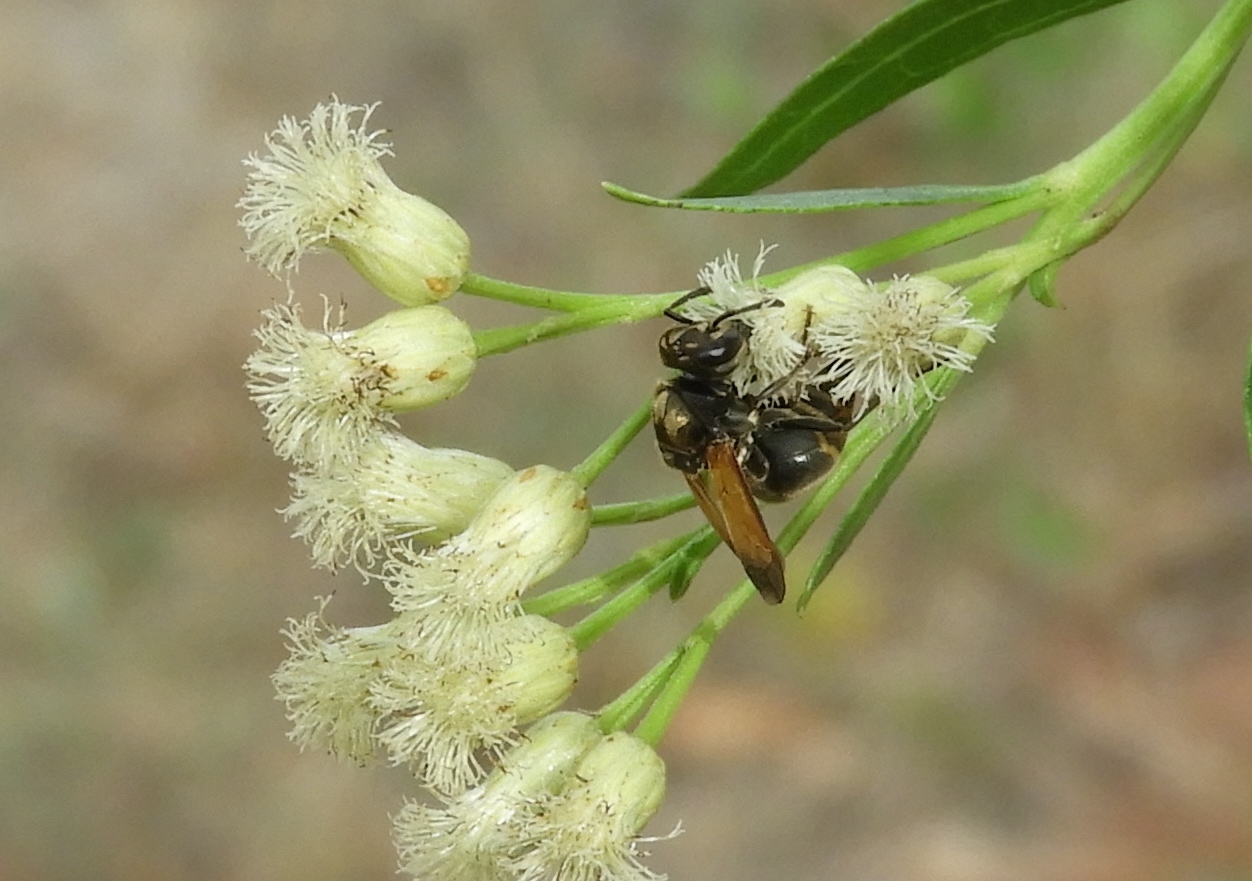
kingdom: Animalia
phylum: Arthropoda
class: Insecta
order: Hymenoptera
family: Vespidae
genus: Brachygastra
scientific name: Brachygastra mellifica
